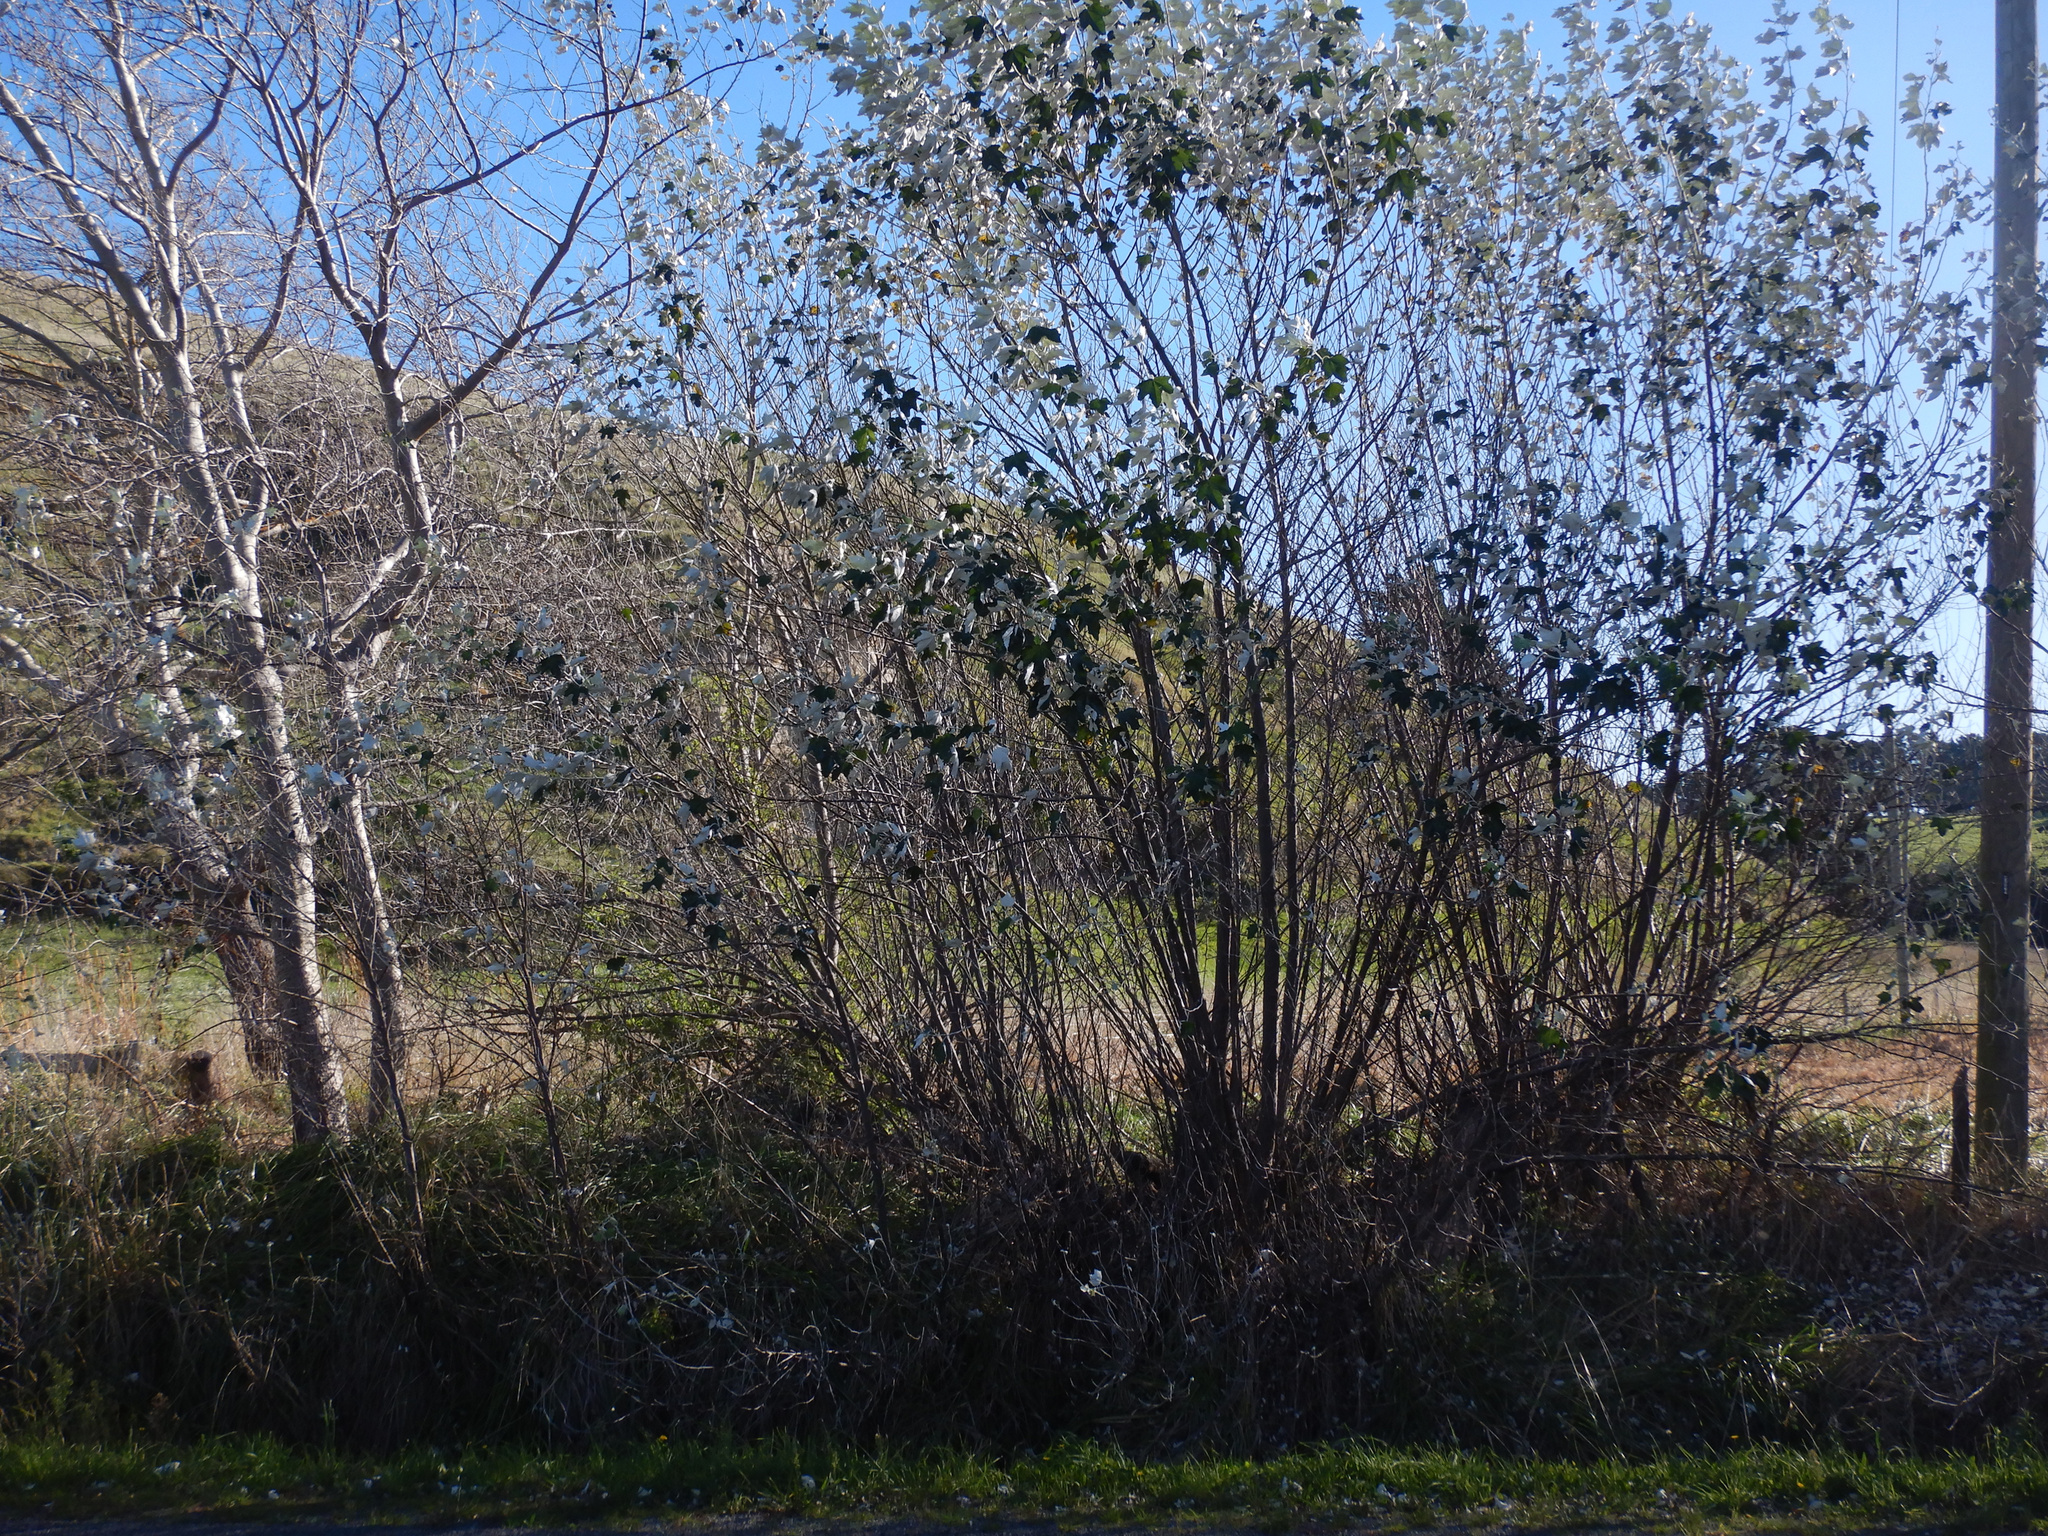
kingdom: Plantae
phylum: Tracheophyta
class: Magnoliopsida
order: Malpighiales
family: Salicaceae
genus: Populus
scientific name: Populus alba
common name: White poplar
